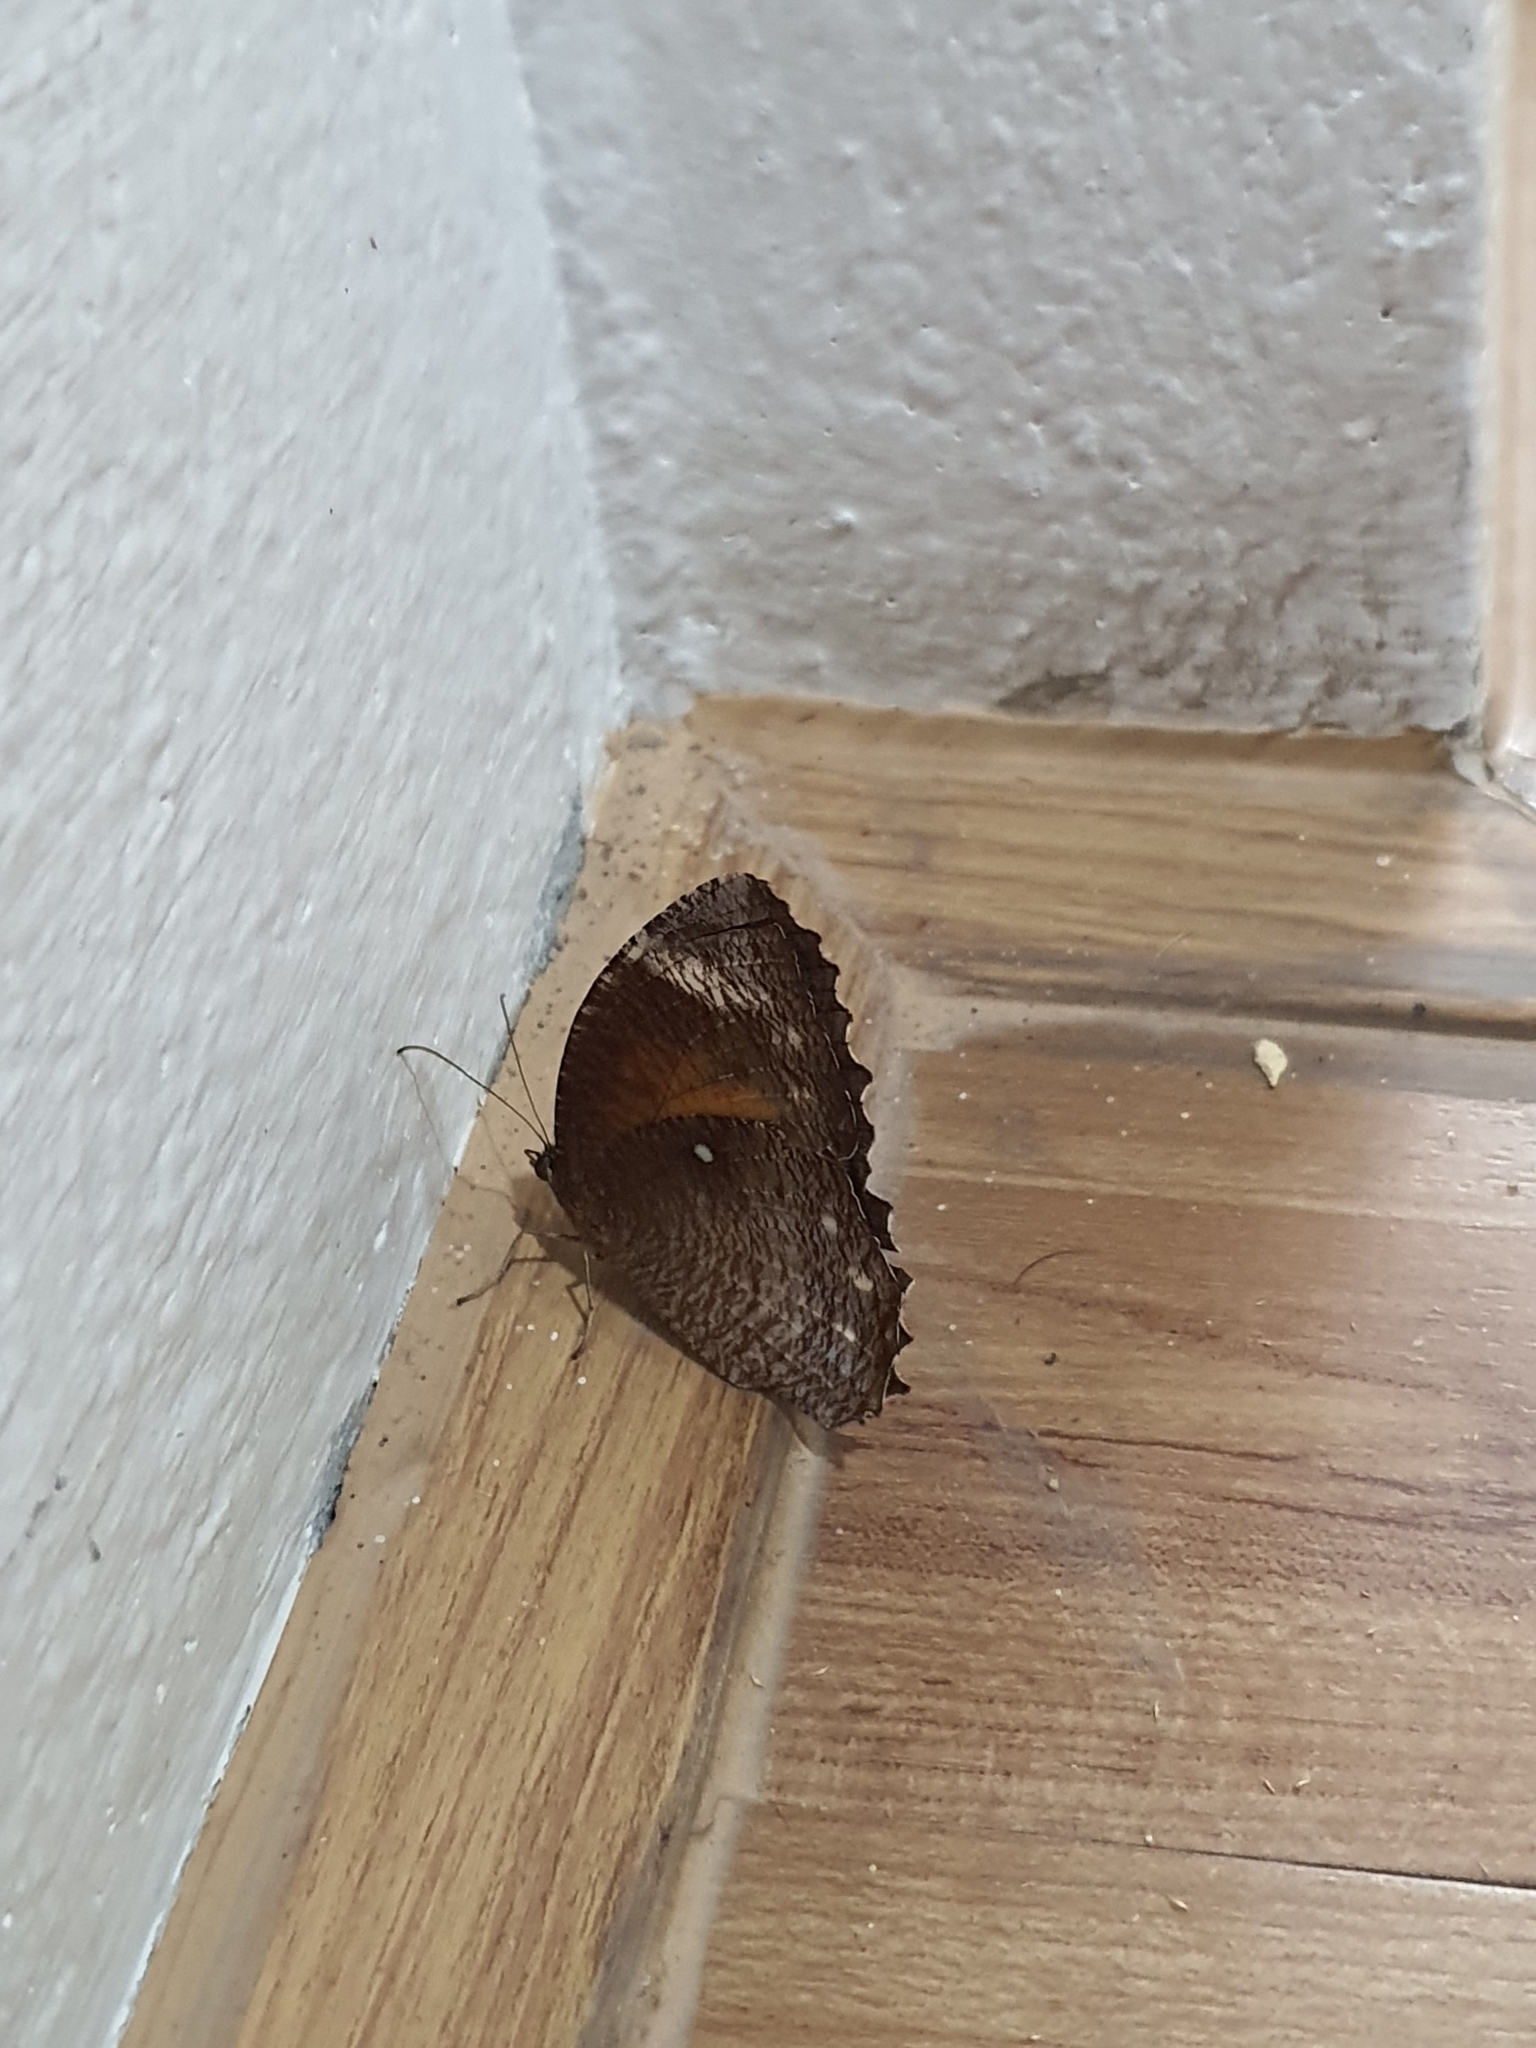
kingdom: Animalia
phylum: Arthropoda
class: Insecta
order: Lepidoptera
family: Nymphalidae
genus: Elymnias
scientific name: Elymnias hypermnestra
